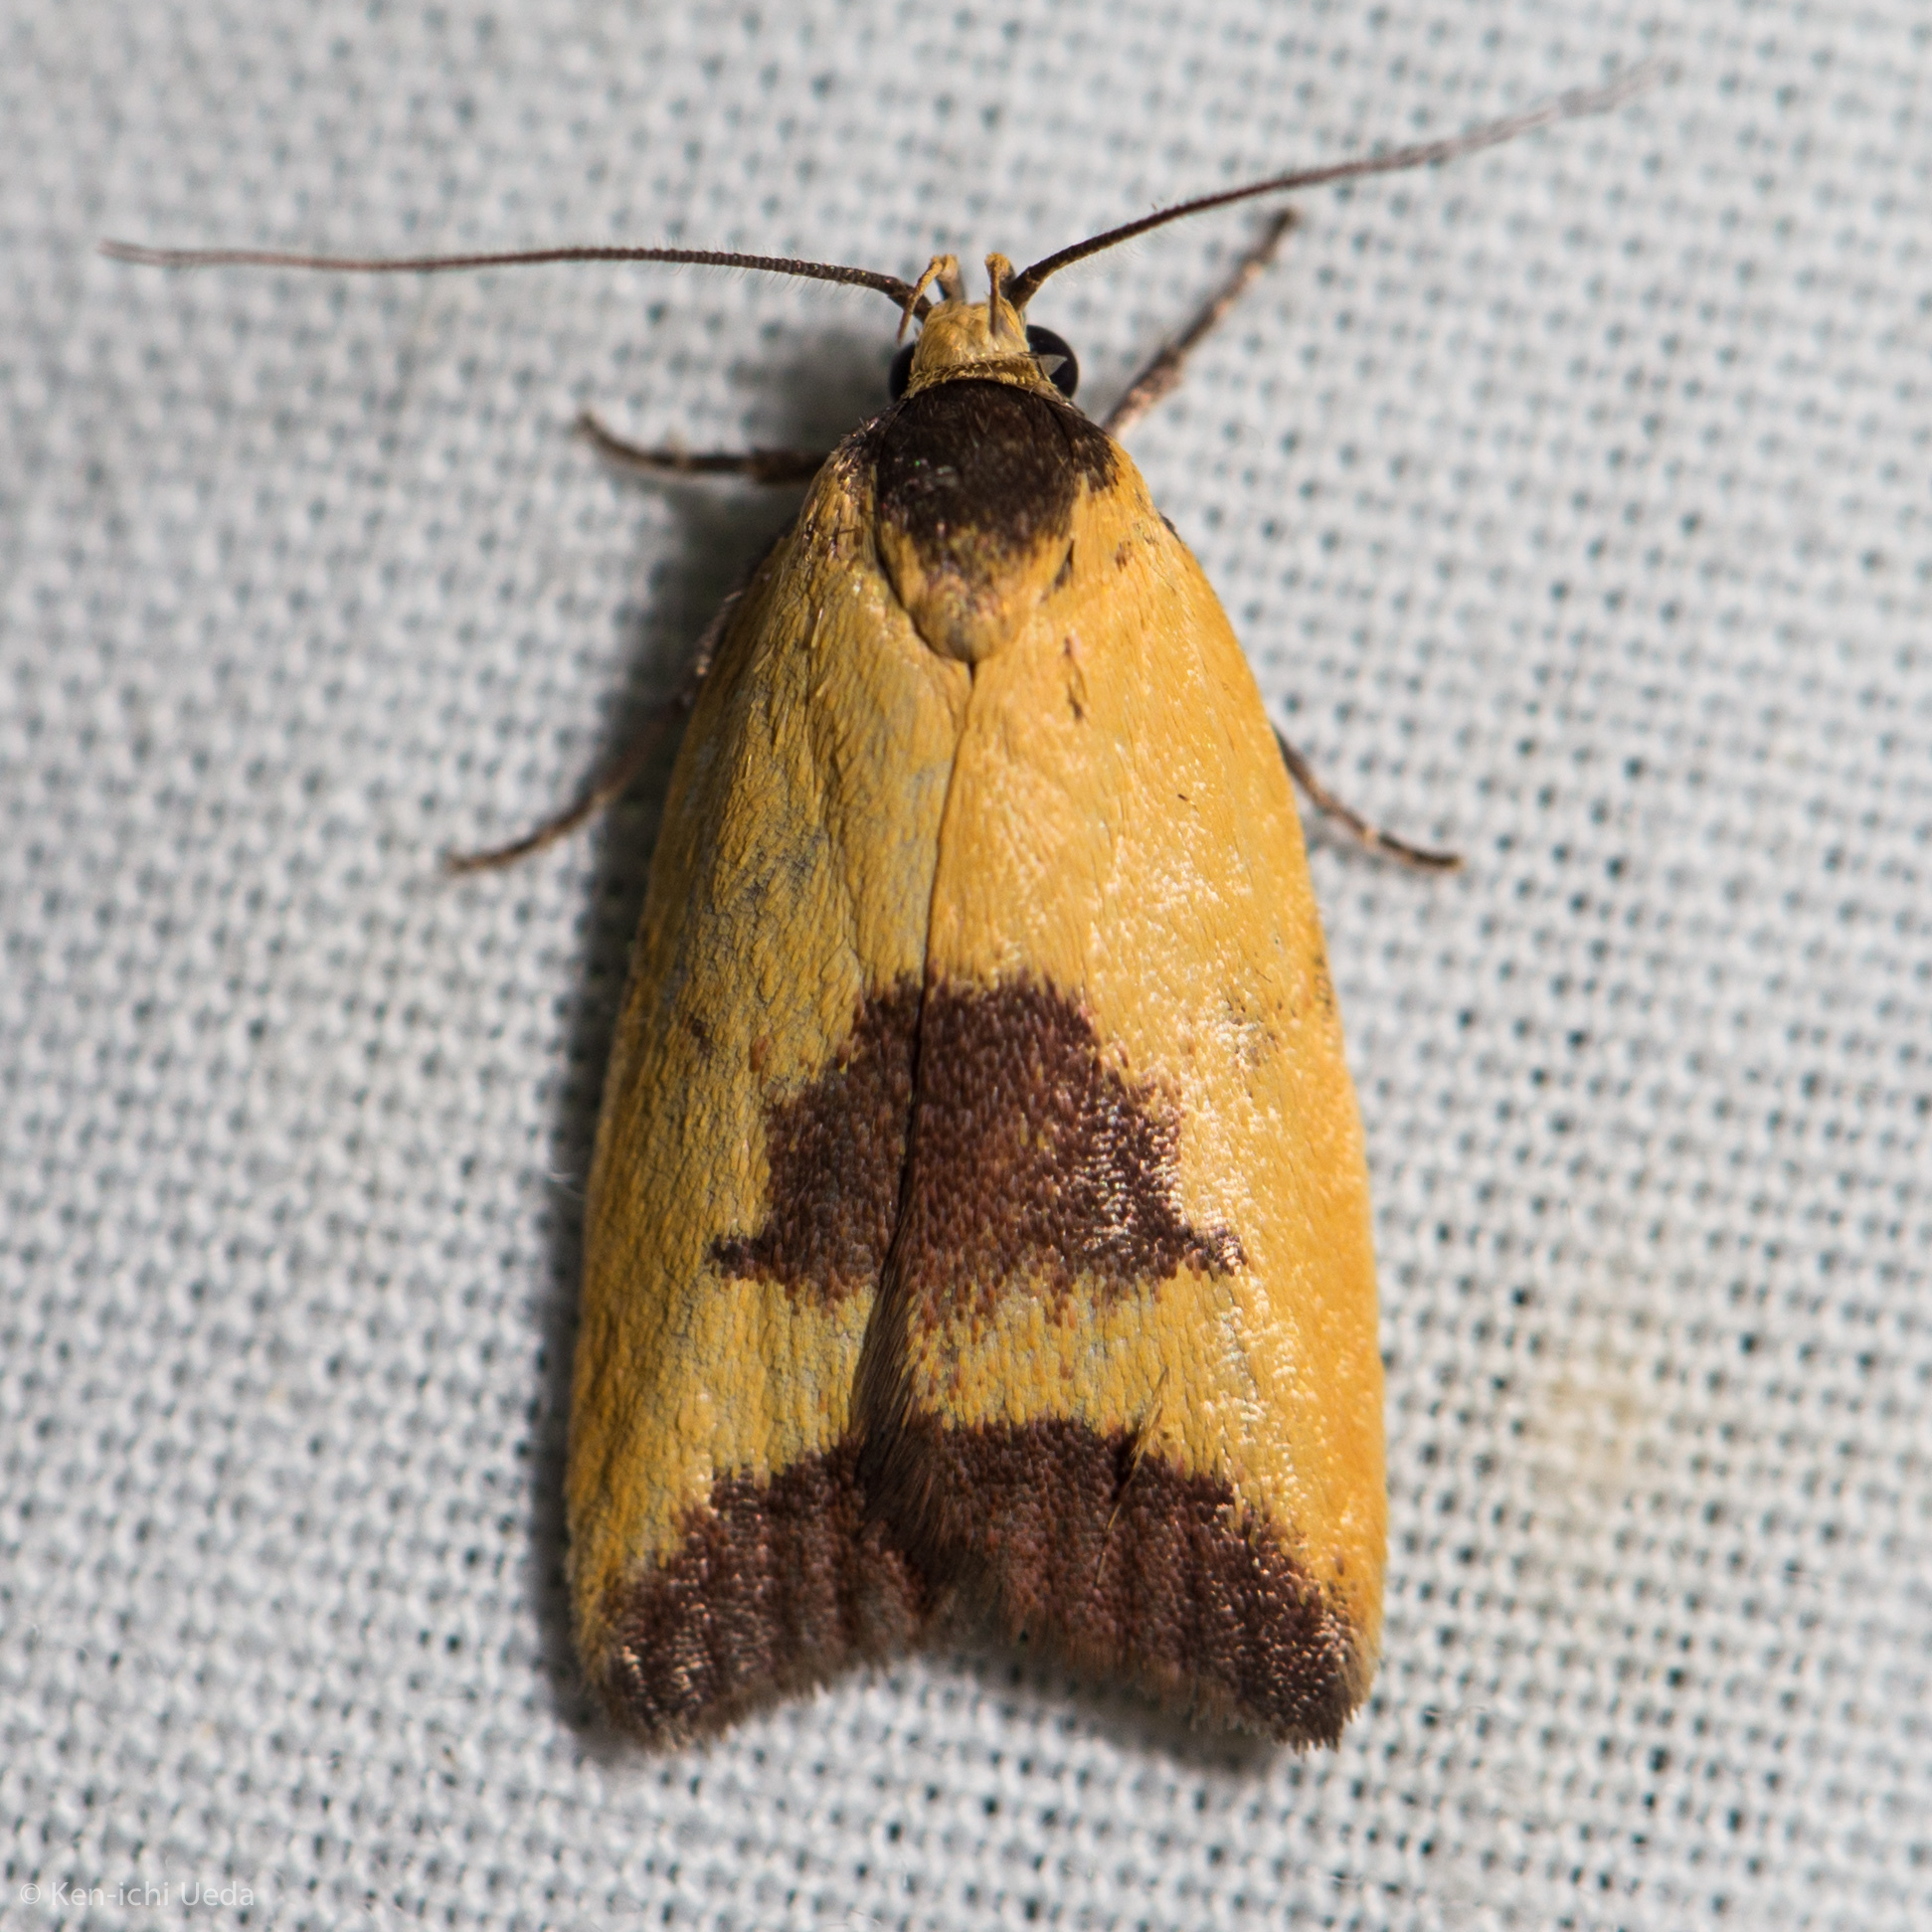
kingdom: Animalia
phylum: Arthropoda
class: Insecta
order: Lepidoptera
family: Oecophoridae
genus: Ageletha
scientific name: Ageletha hemiteles
